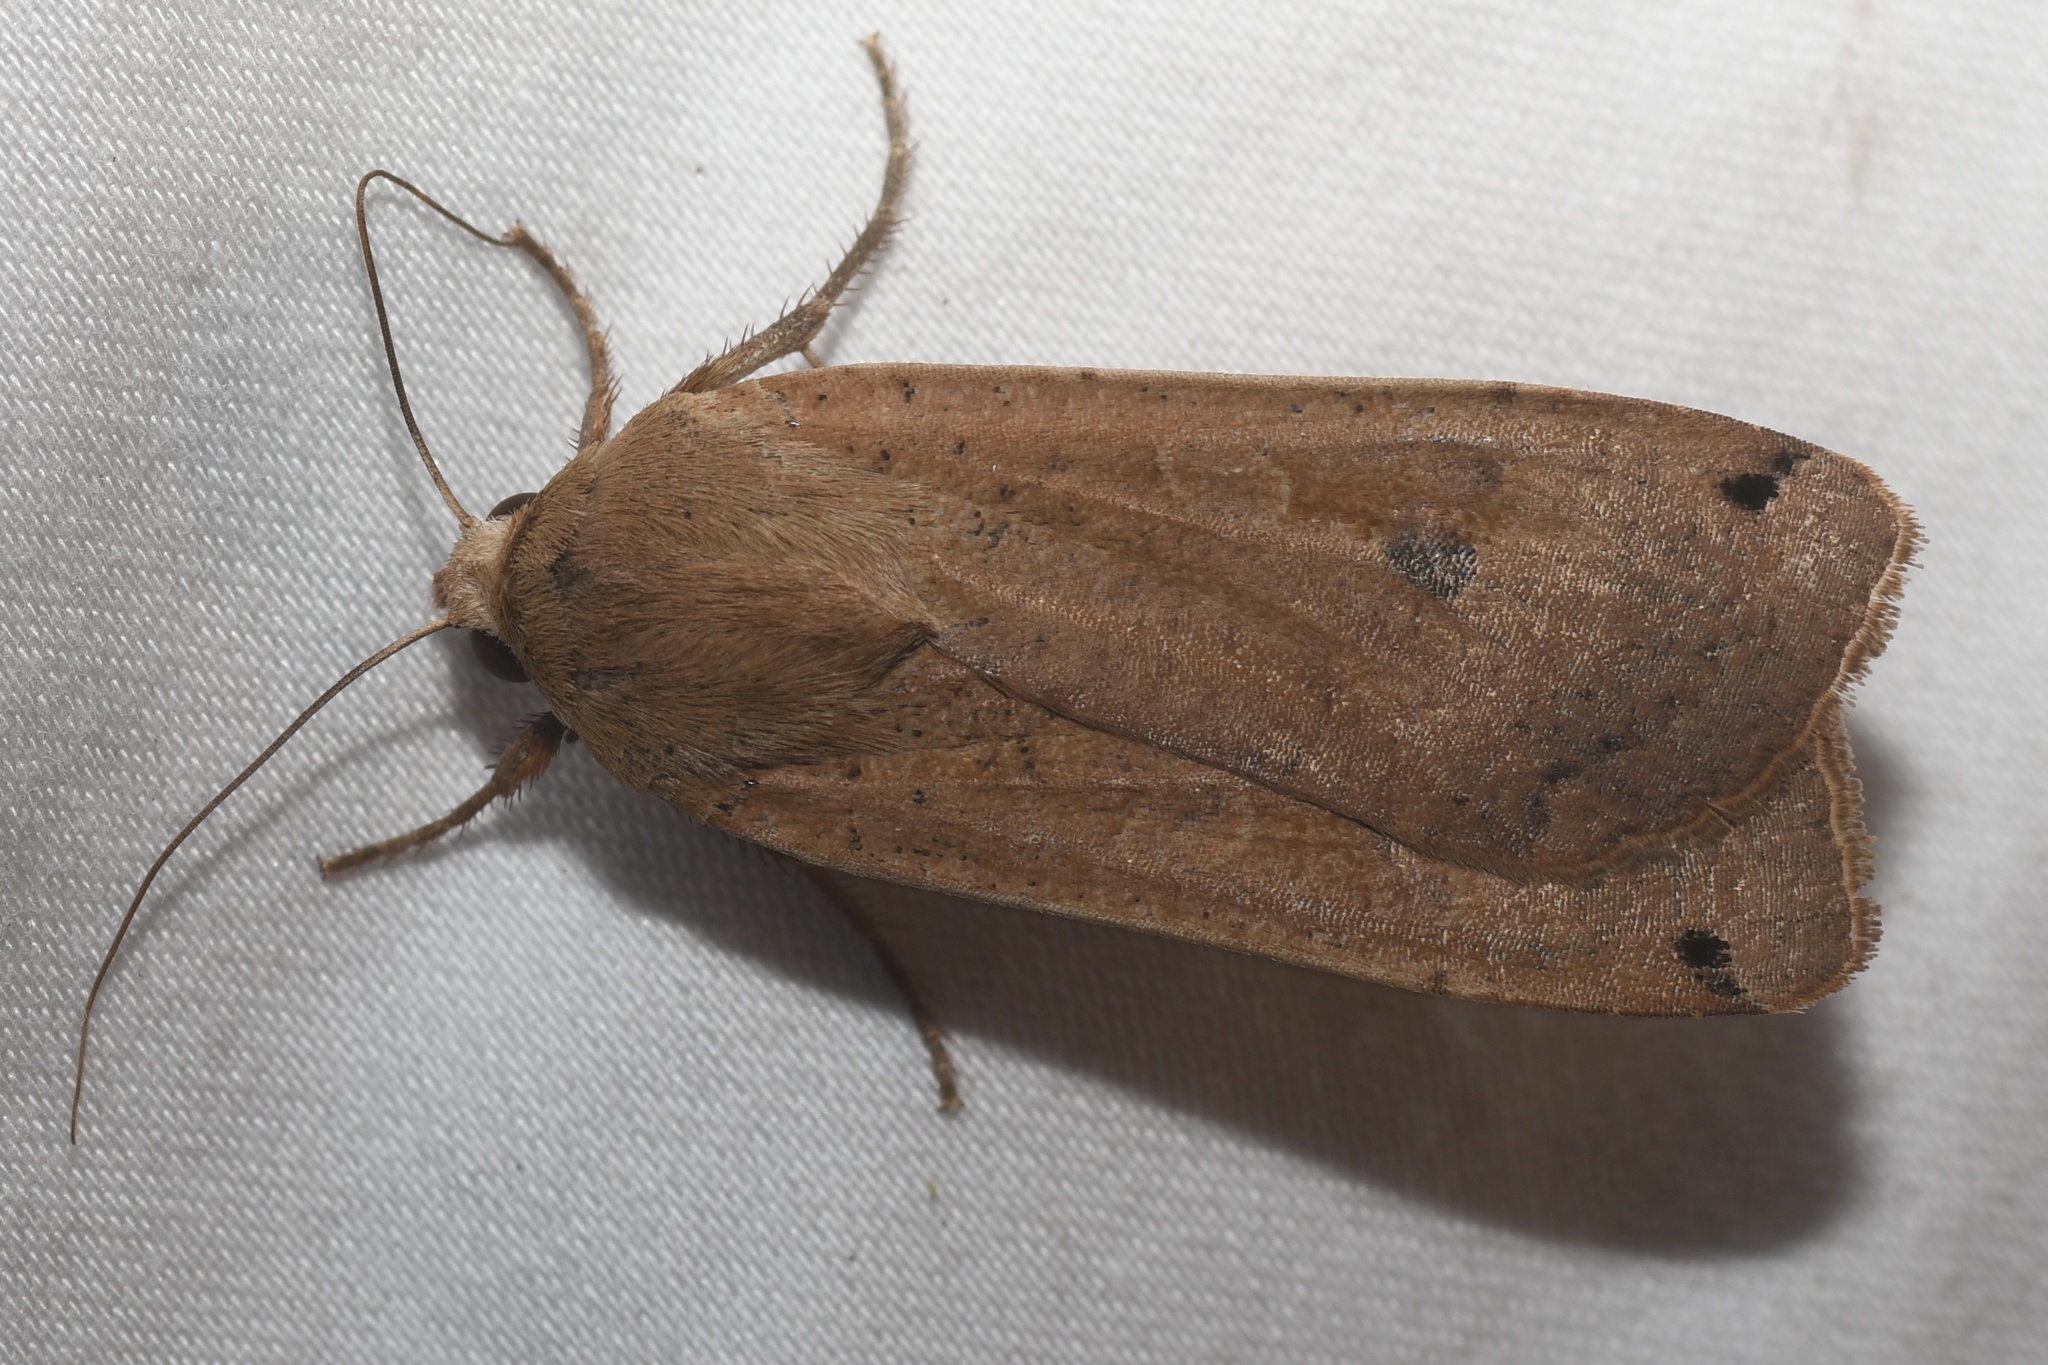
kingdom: Animalia
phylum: Arthropoda
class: Insecta
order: Lepidoptera
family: Noctuidae
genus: Noctua
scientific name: Noctua pronuba
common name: Large yellow underwing
